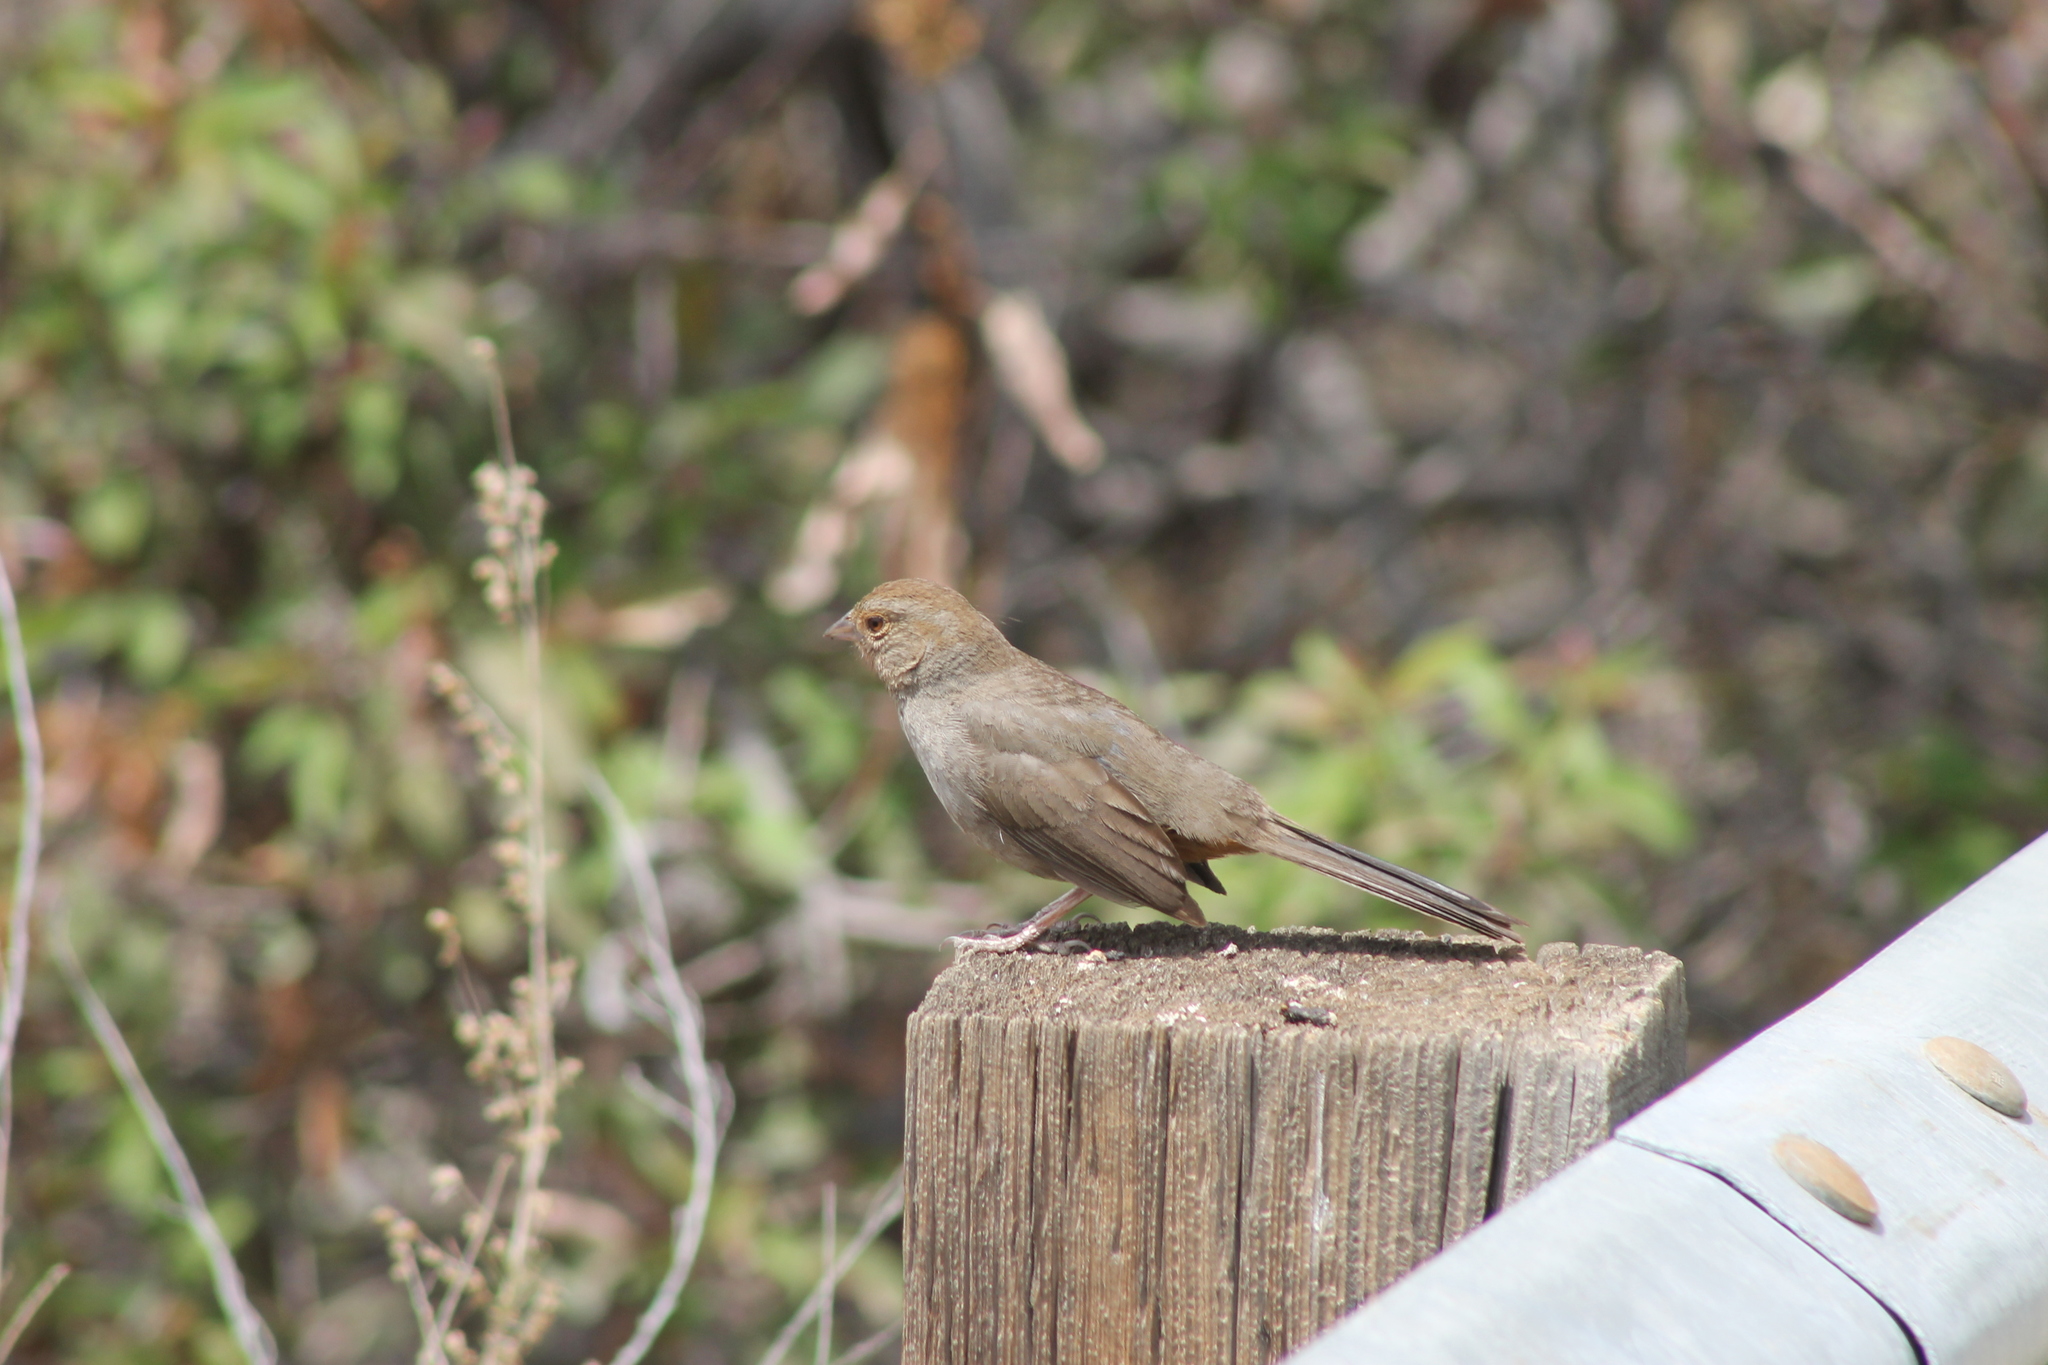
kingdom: Animalia
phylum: Chordata
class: Aves
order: Passeriformes
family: Passerellidae
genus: Melozone
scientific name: Melozone crissalis
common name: California towhee
